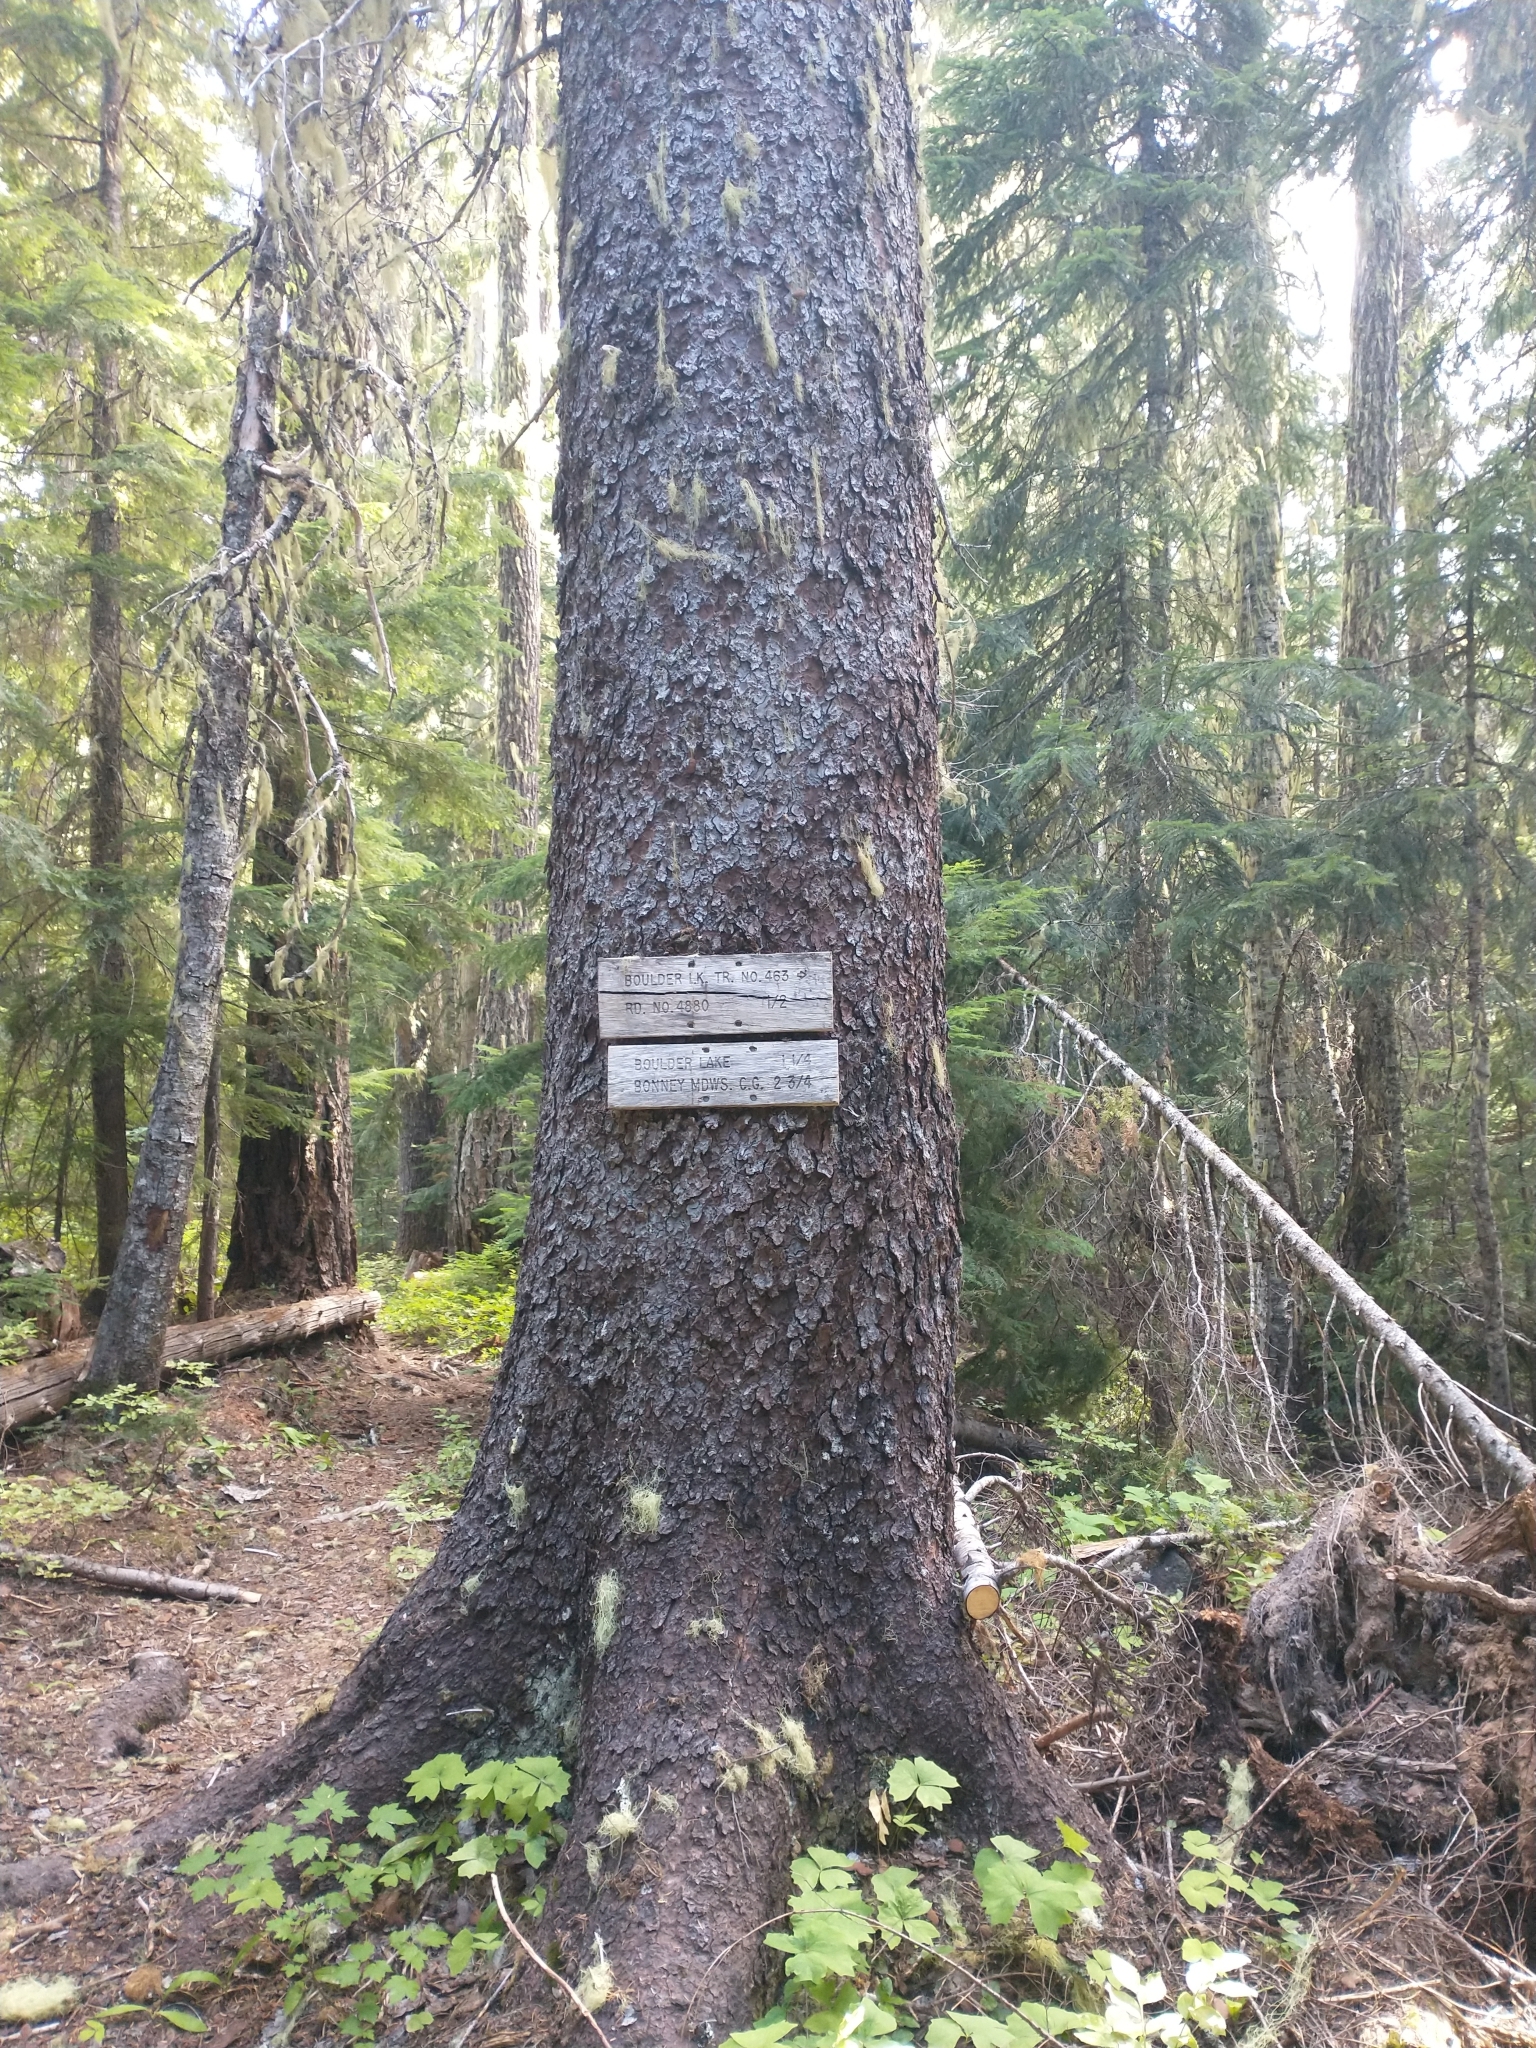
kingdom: Plantae
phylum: Tracheophyta
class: Pinopsida
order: Pinales
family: Pinaceae
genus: Picea
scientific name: Picea engelmannii
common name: Engelmann spruce
